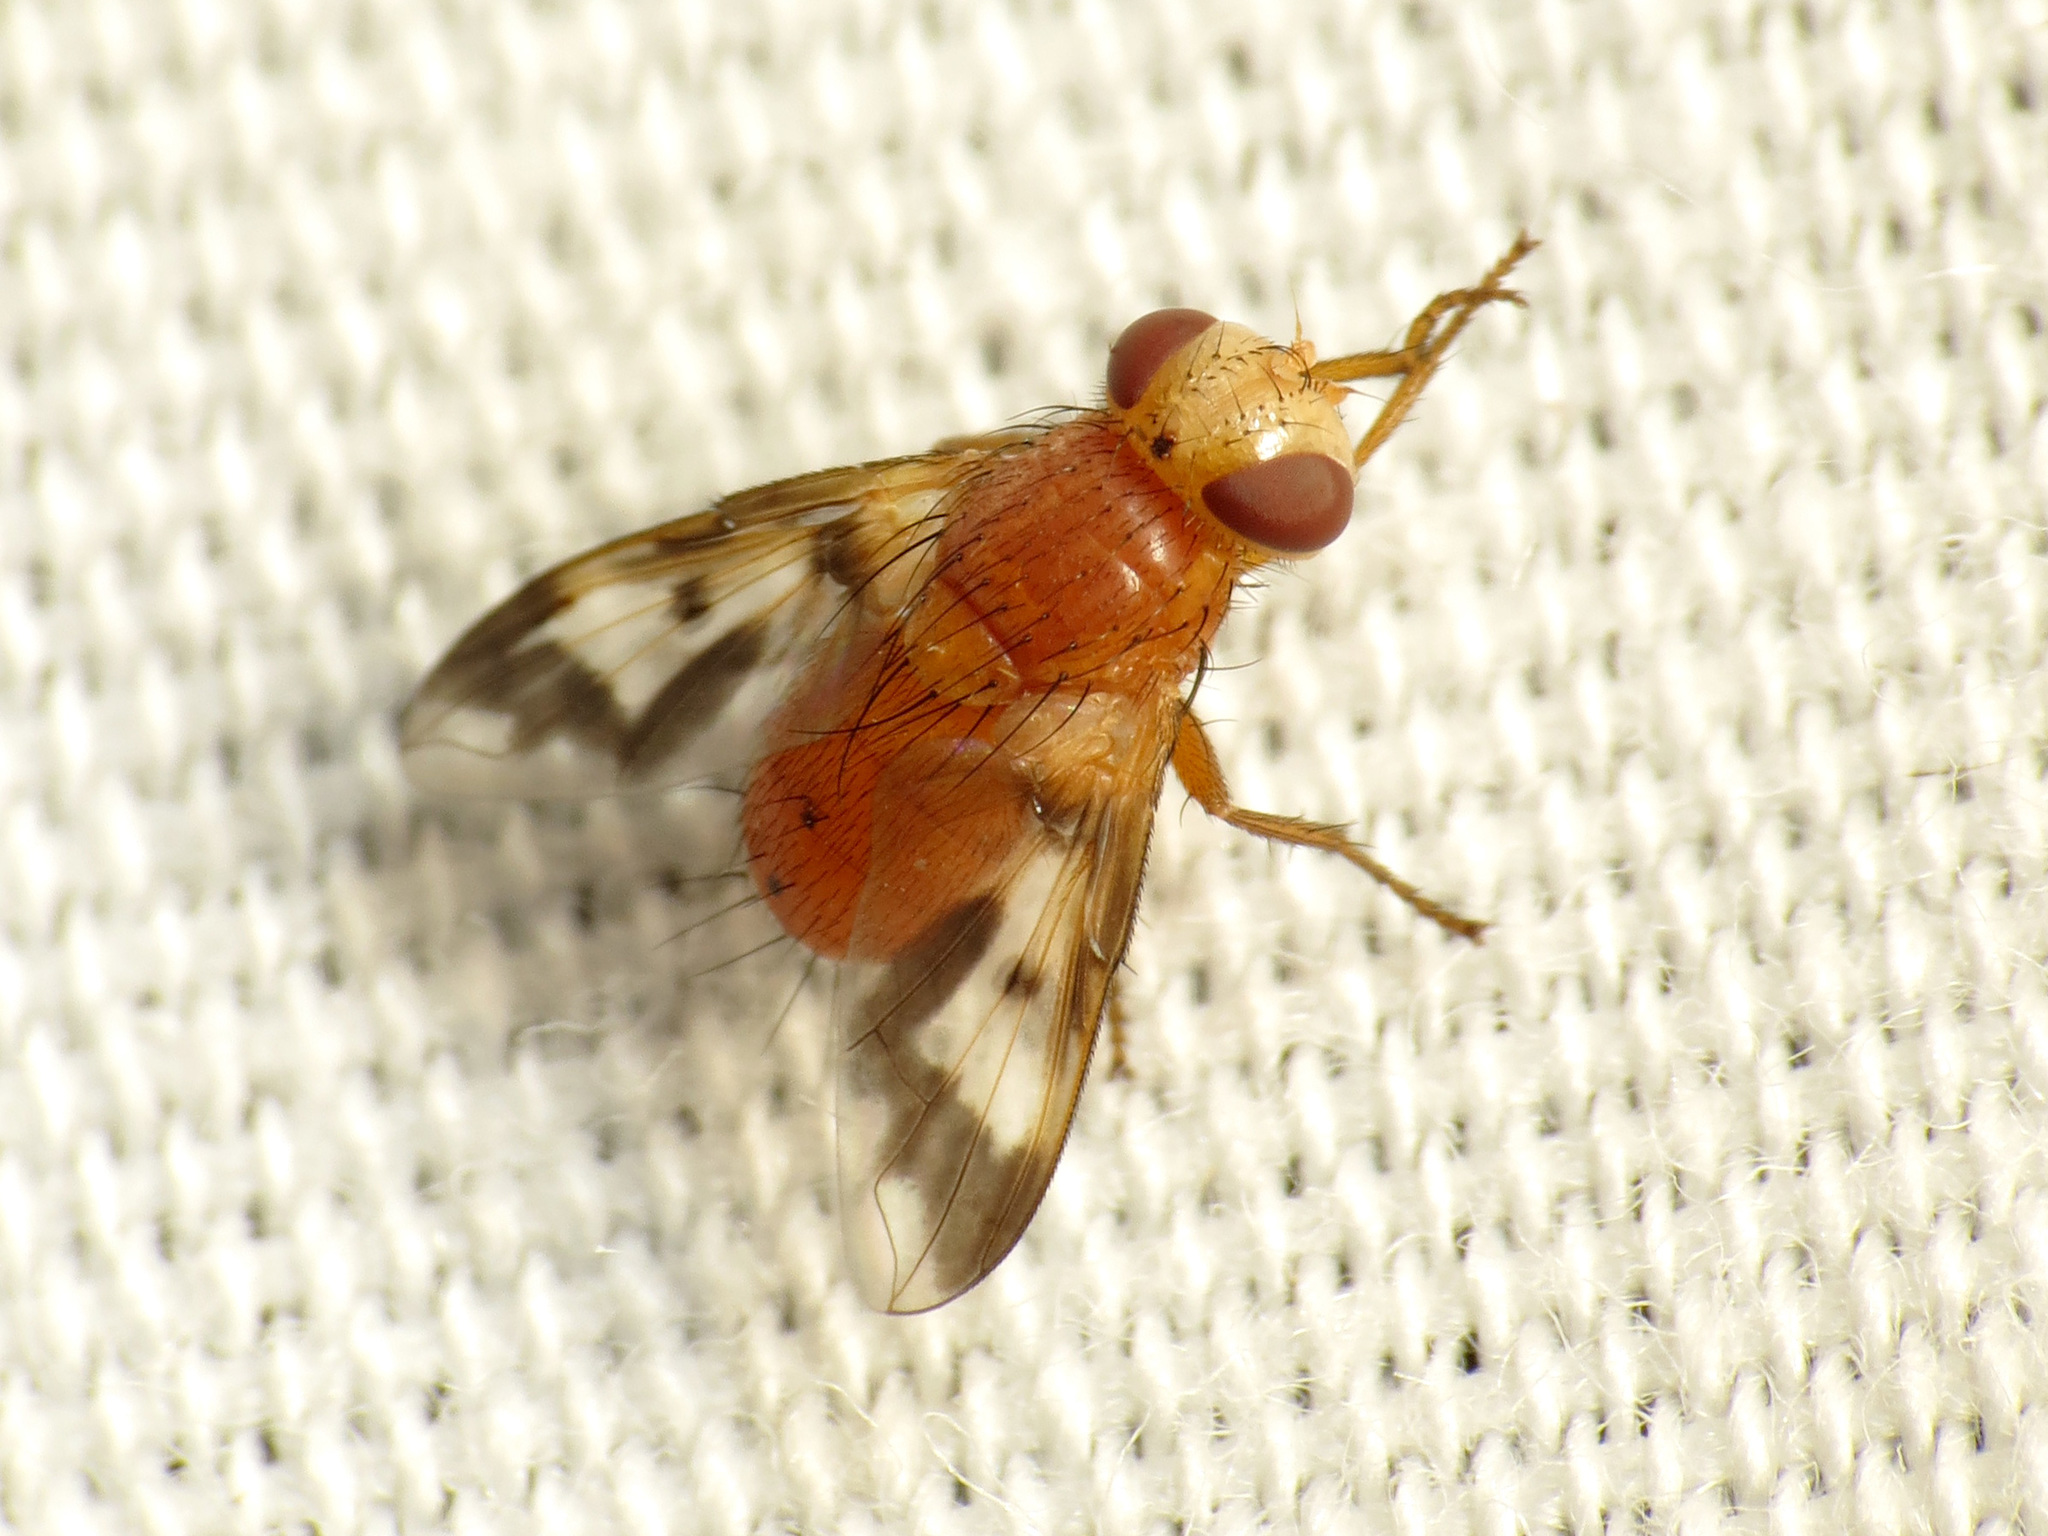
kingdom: Animalia
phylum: Arthropoda
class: Insecta
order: Diptera
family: Tachinidae
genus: Oestrophasia
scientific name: Oestrophasia calva
